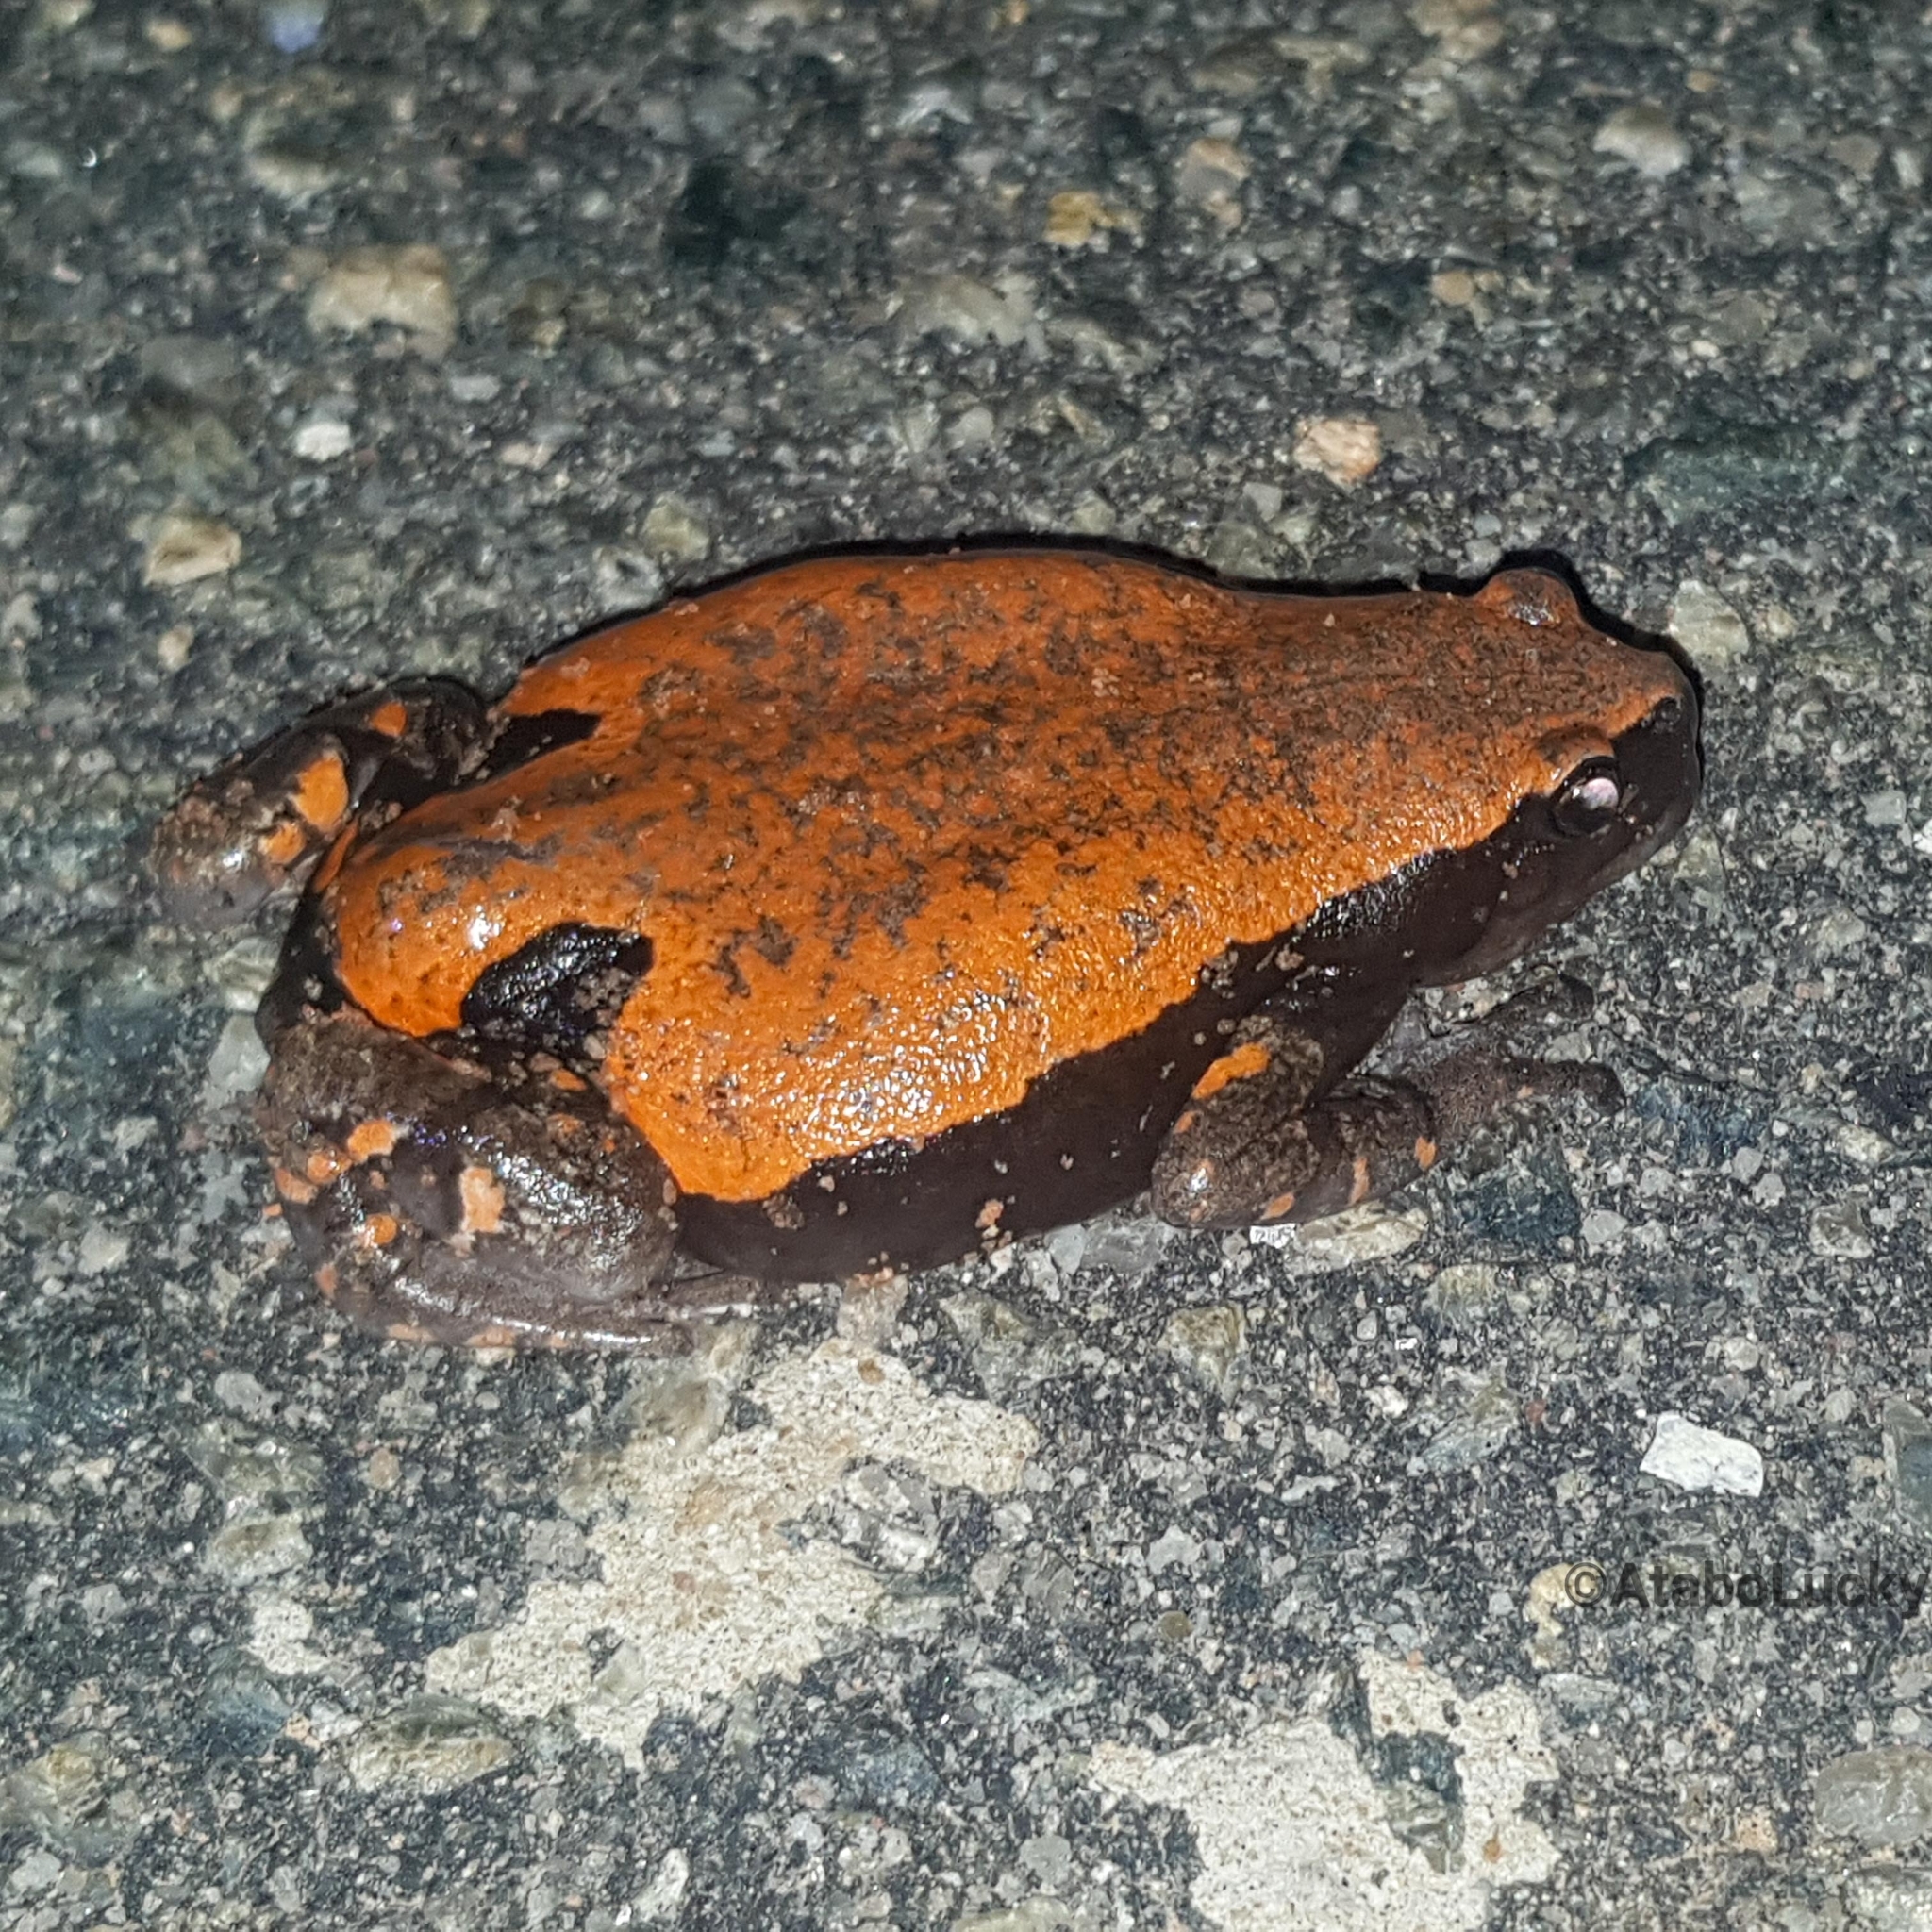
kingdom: Animalia
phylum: Chordata
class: Amphibia
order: Anura
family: Microhylidae
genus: Phrynomantis
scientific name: Phrynomantis microps
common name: Accra snake-necked frog
